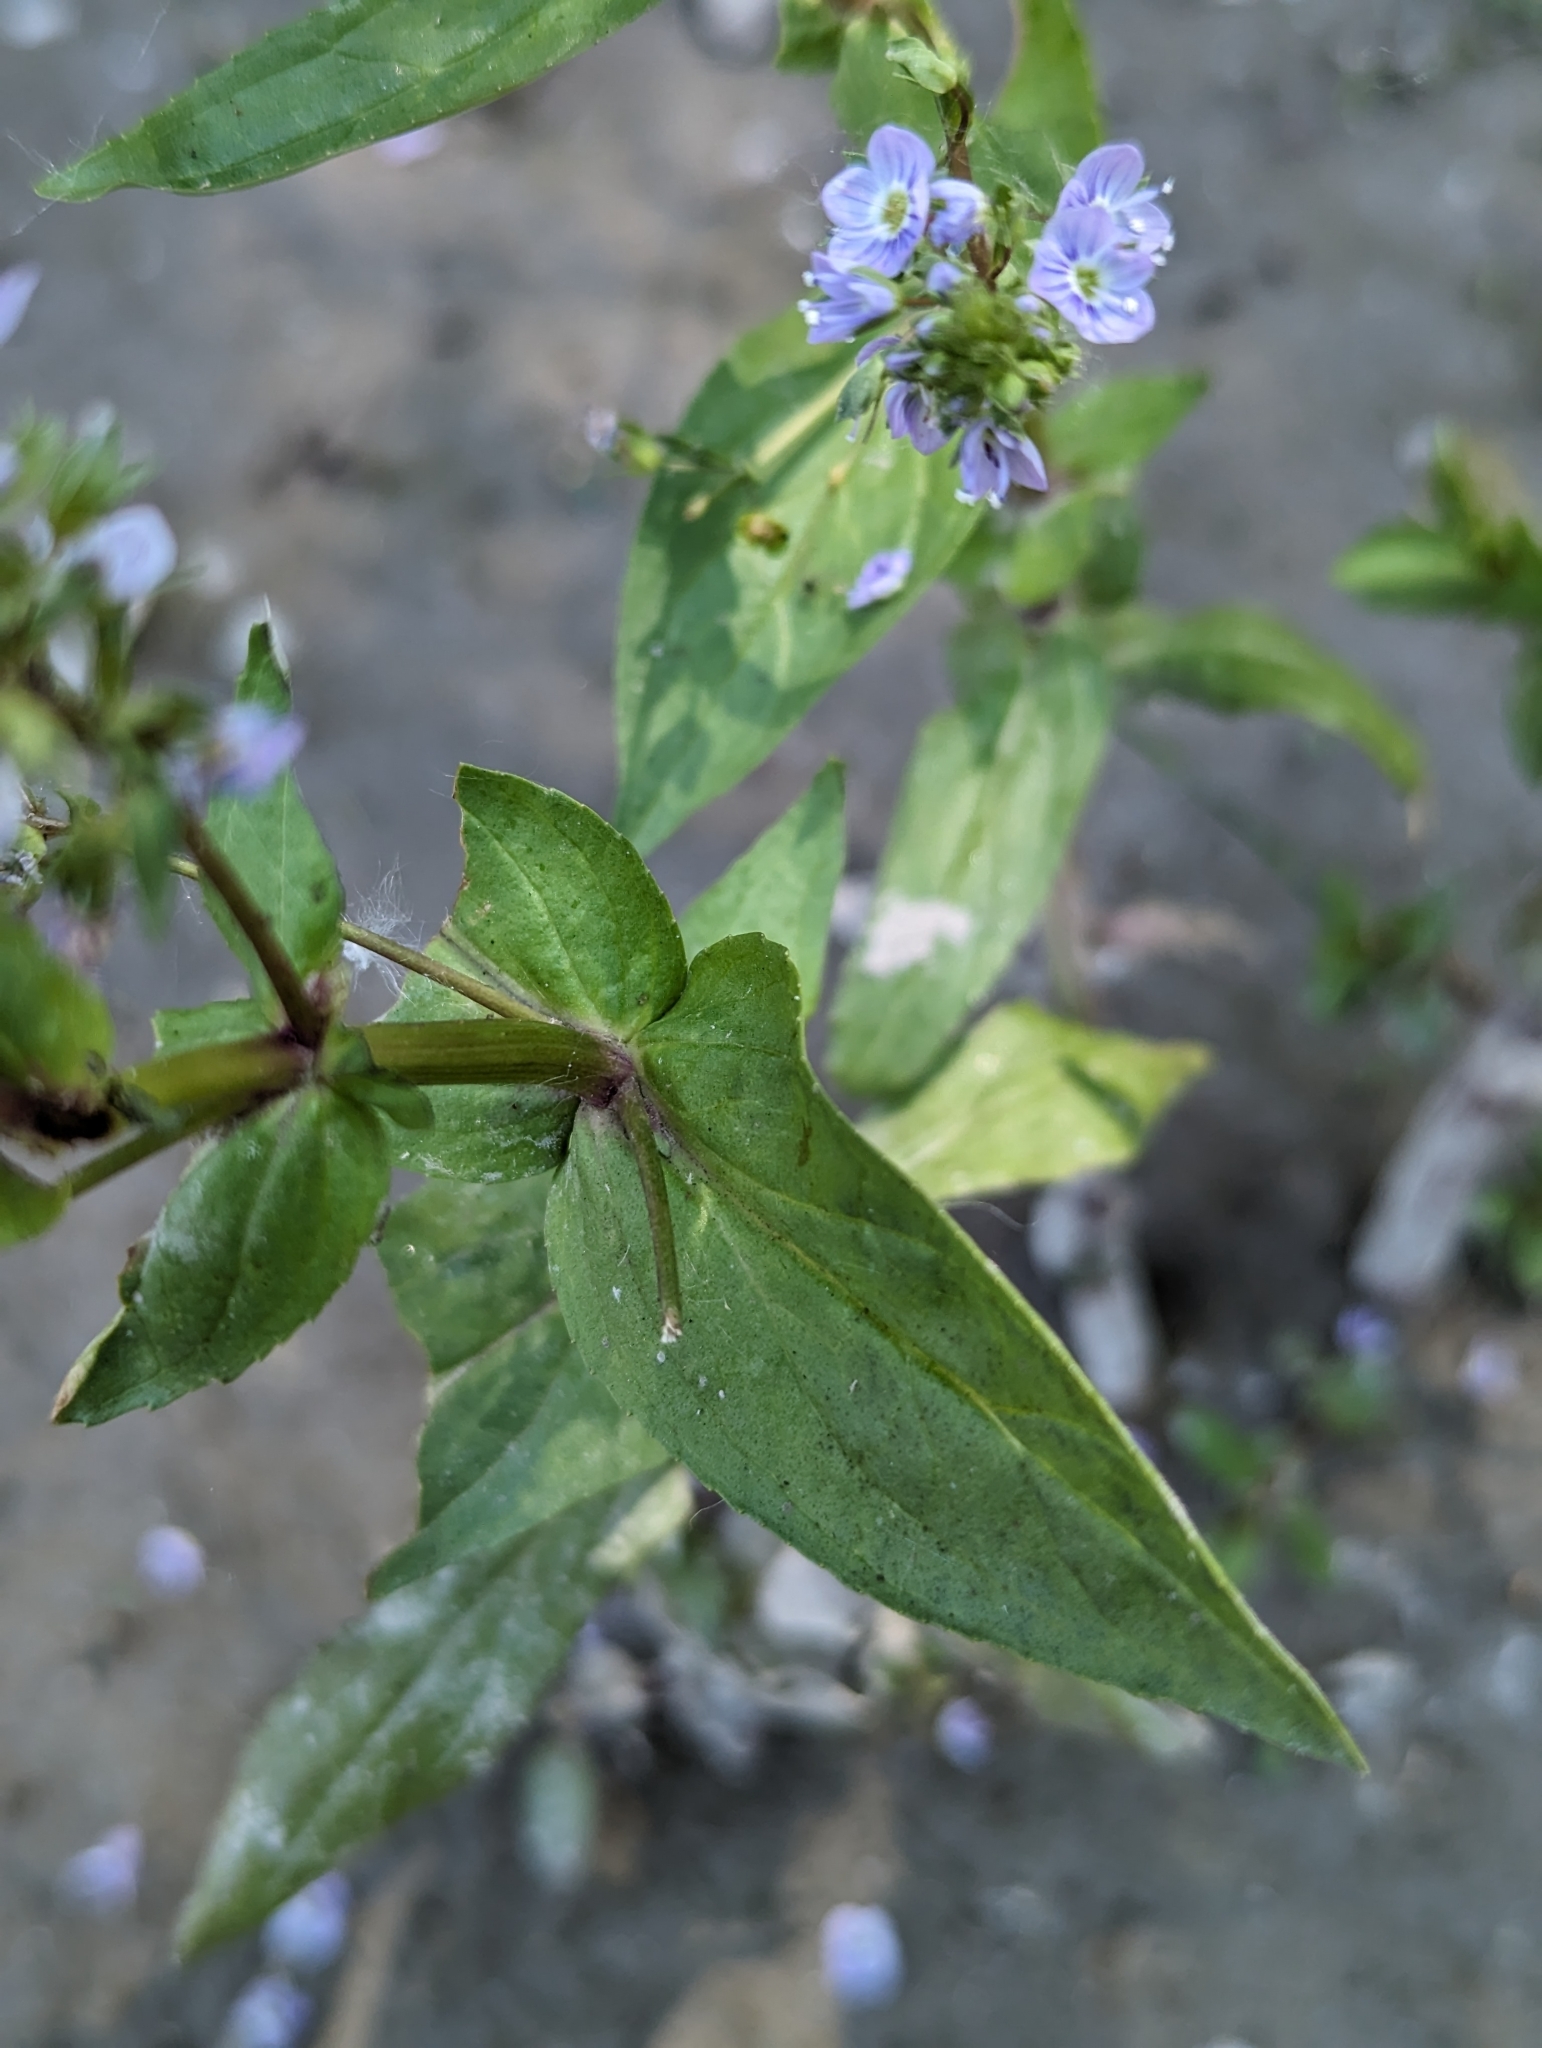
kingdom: Plantae
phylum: Tracheophyta
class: Magnoliopsida
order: Lamiales
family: Plantaginaceae
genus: Veronica
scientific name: Veronica anagallis-aquatica
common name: Water speedwell
